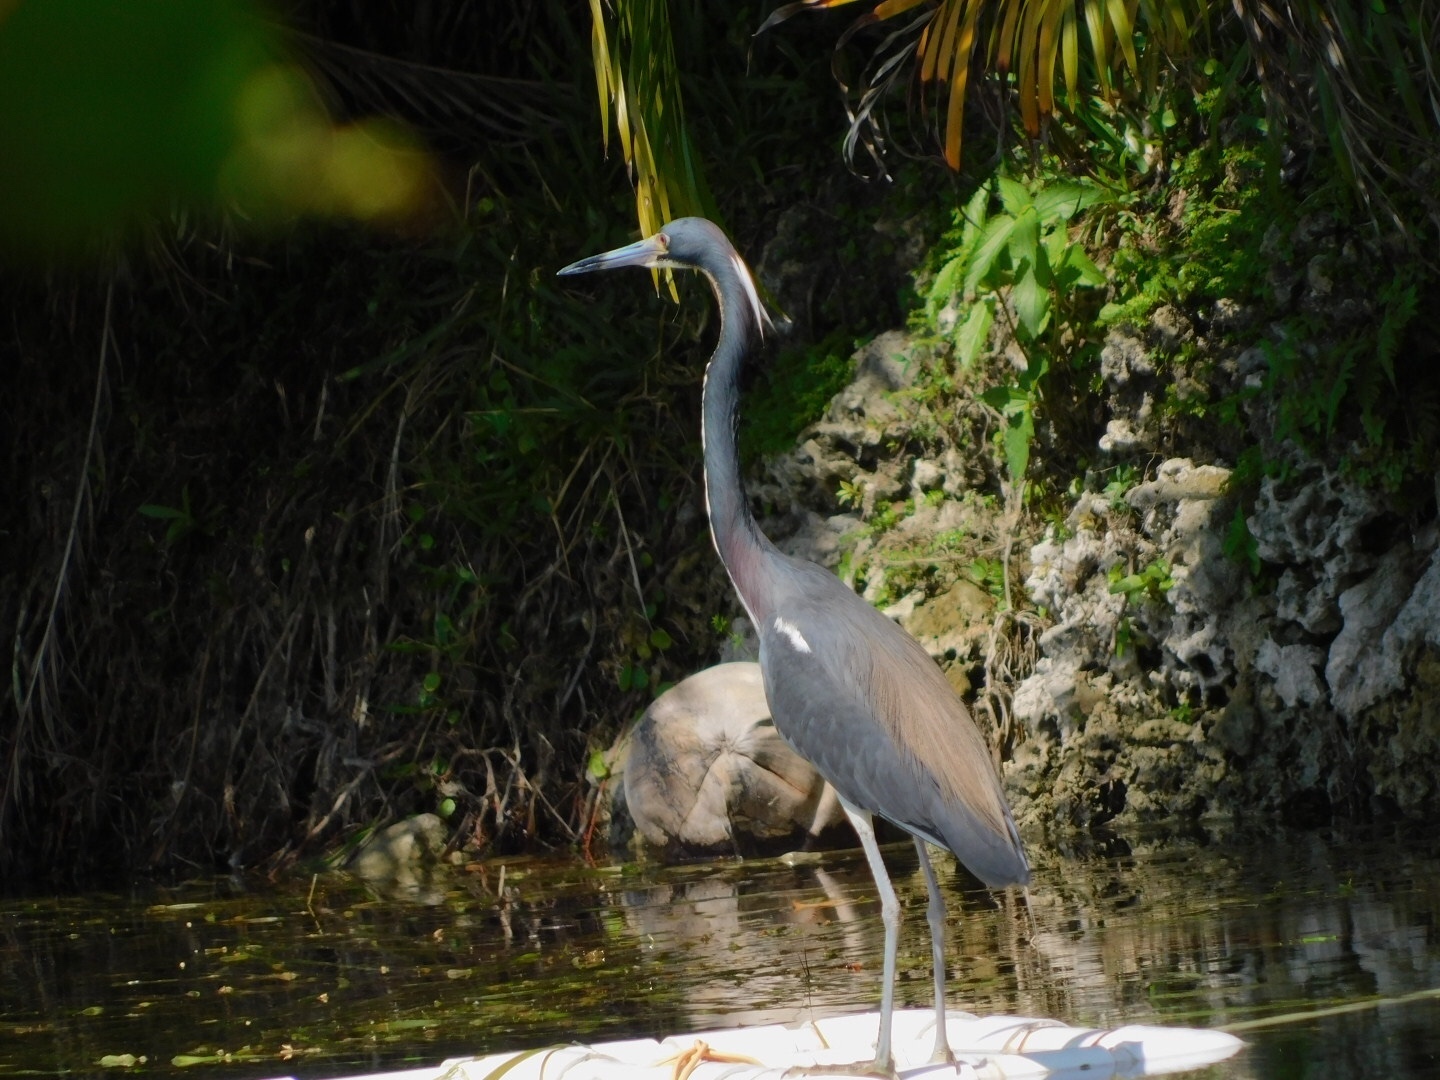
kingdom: Animalia
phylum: Chordata
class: Aves
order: Pelecaniformes
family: Ardeidae
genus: Egretta
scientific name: Egretta tricolor
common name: Tricolored heron
